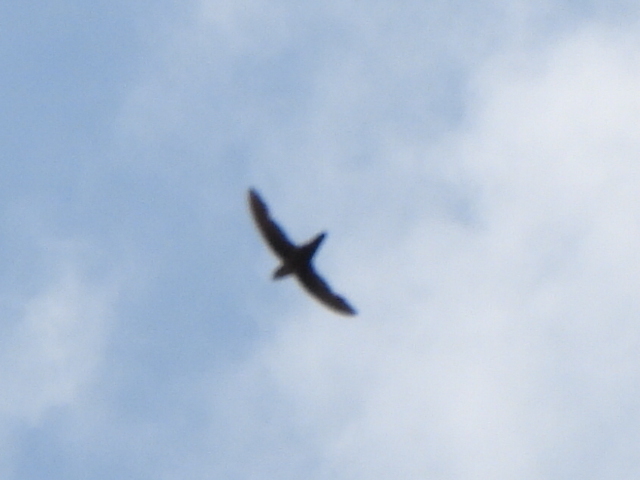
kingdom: Animalia
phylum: Chordata
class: Aves
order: Apodiformes
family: Apodidae
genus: Chaetura
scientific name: Chaetura pelagica
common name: Chimney swift
